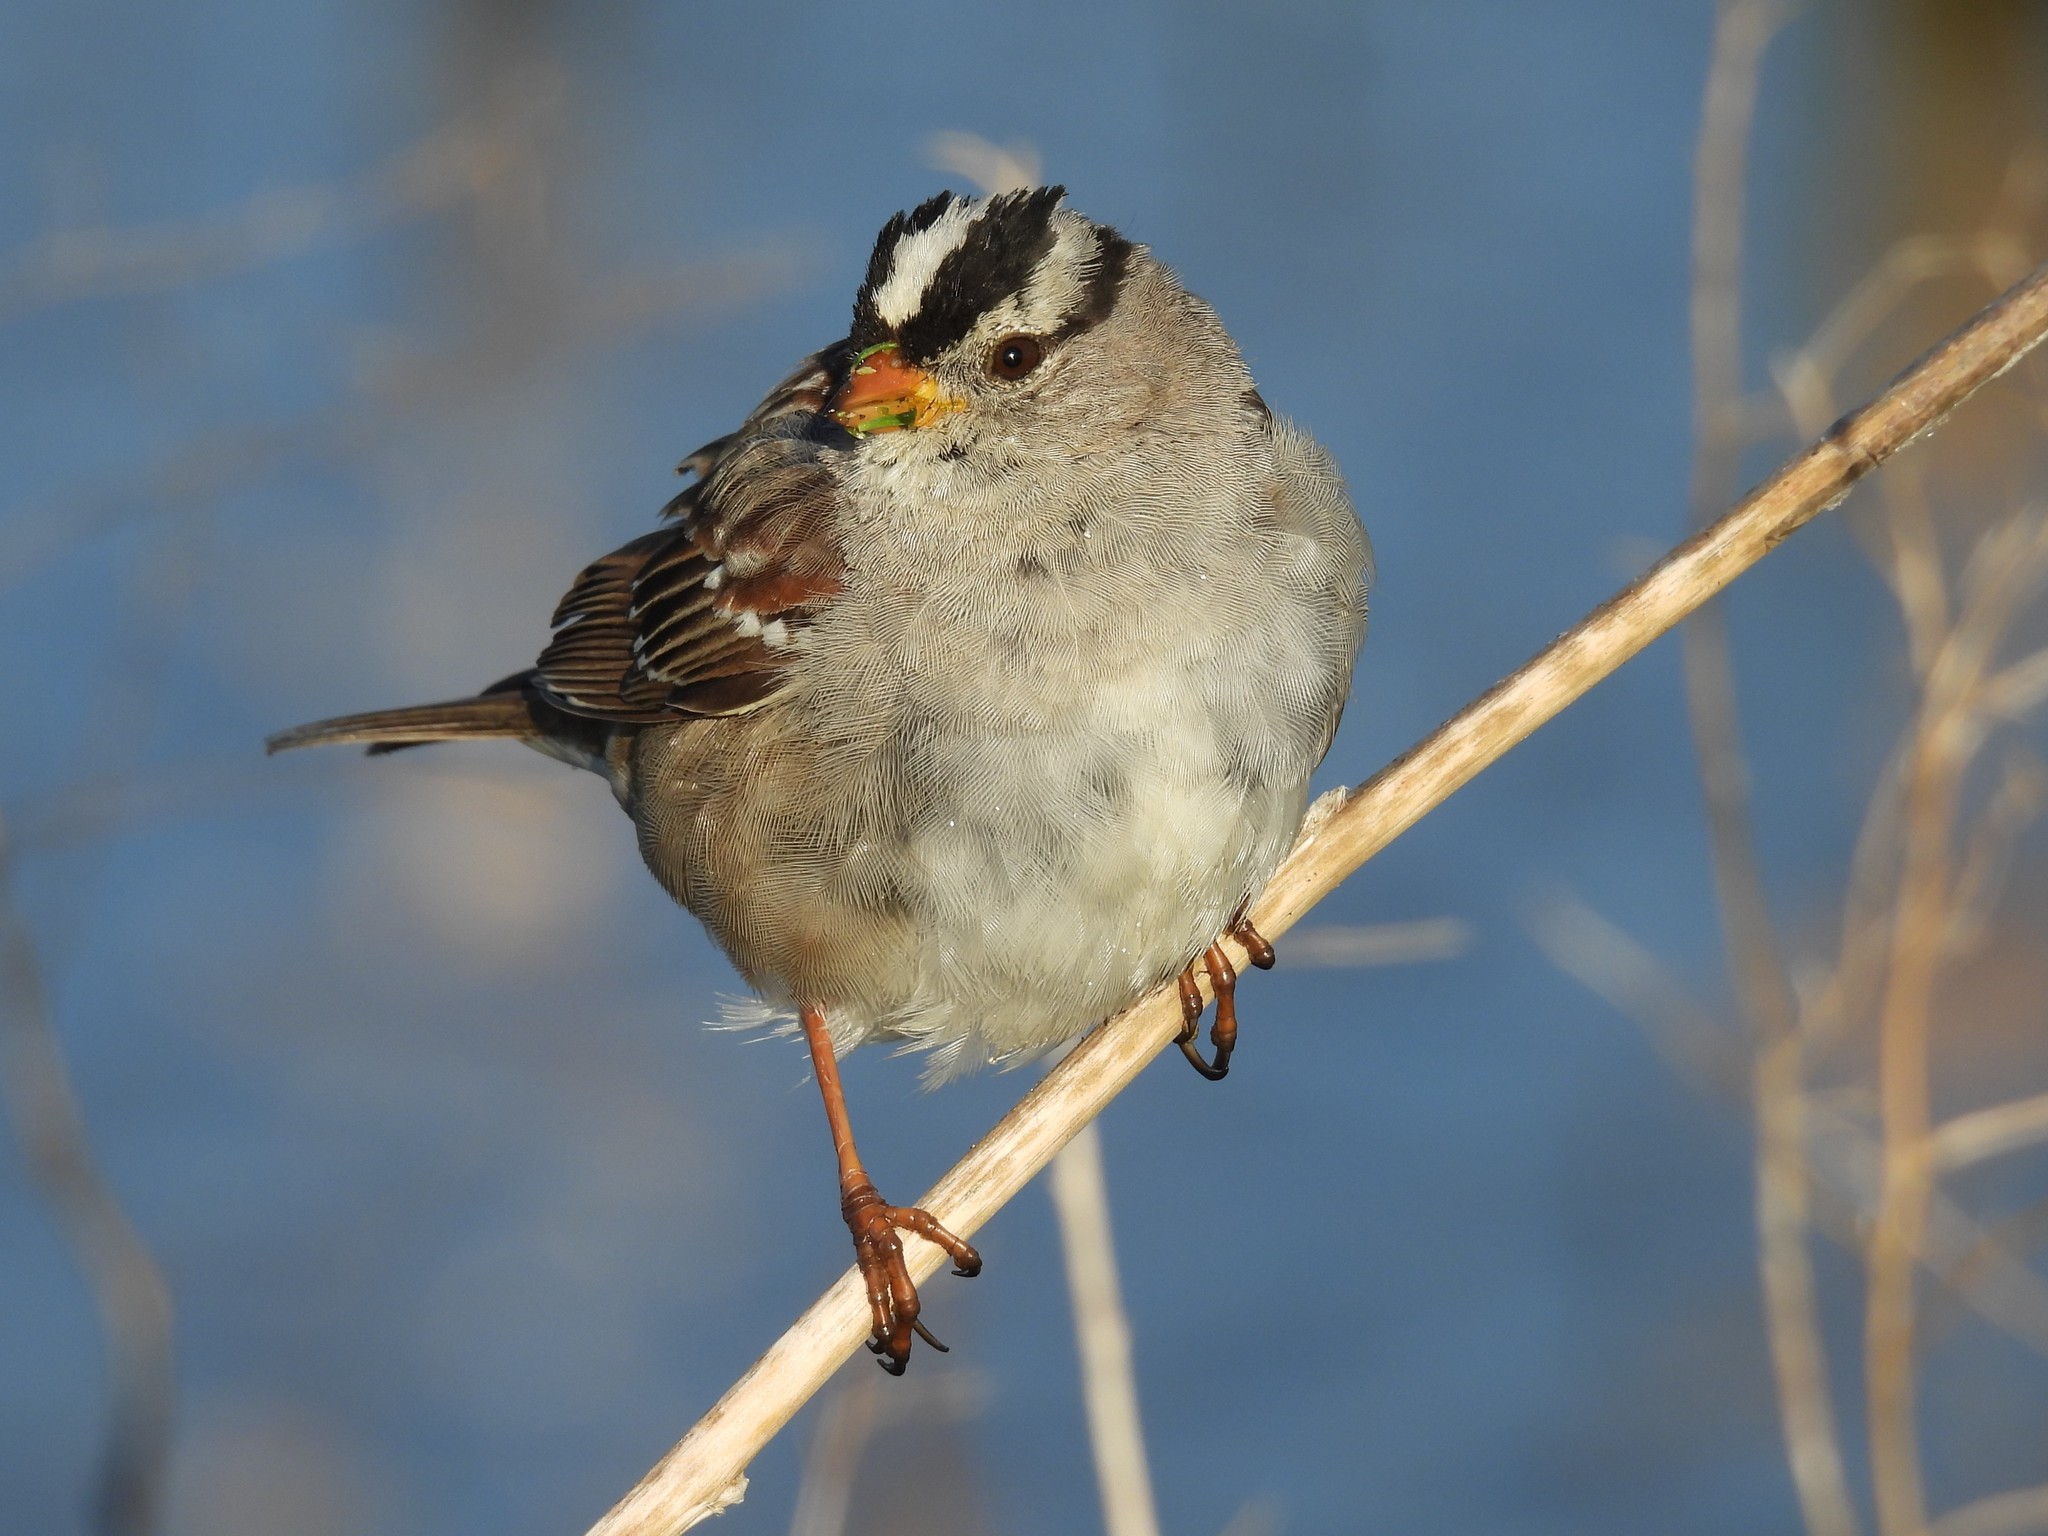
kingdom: Animalia
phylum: Chordata
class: Aves
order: Passeriformes
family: Passerellidae
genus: Zonotrichia
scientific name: Zonotrichia leucophrys
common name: White-crowned sparrow
